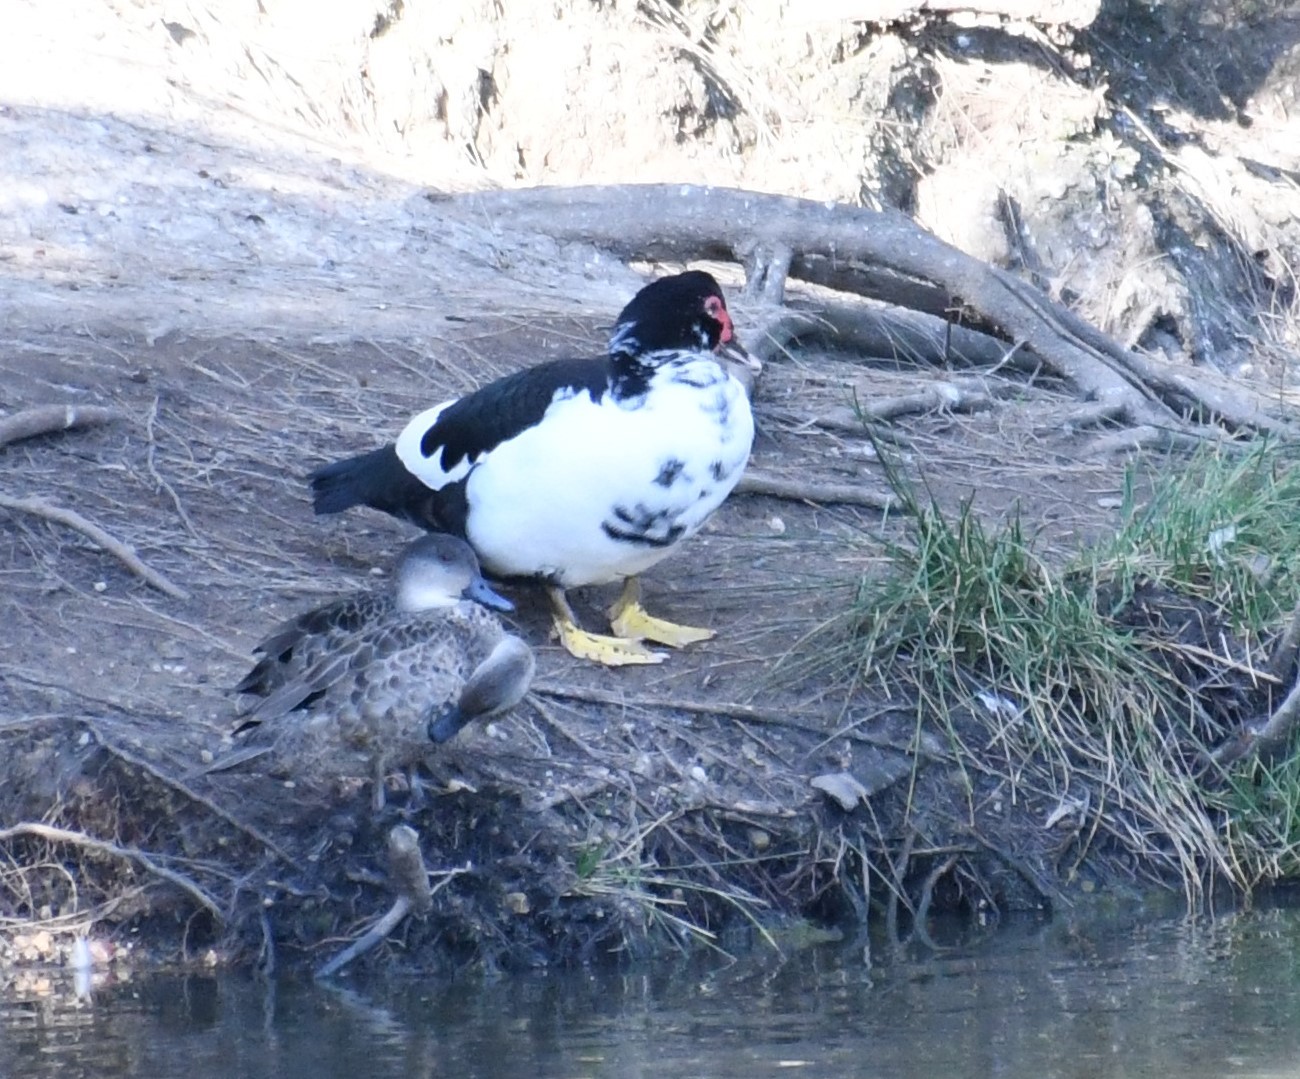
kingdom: Animalia
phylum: Chordata
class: Aves
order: Anseriformes
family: Anatidae
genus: Anas
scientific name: Anas gracilis
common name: Grey teal
